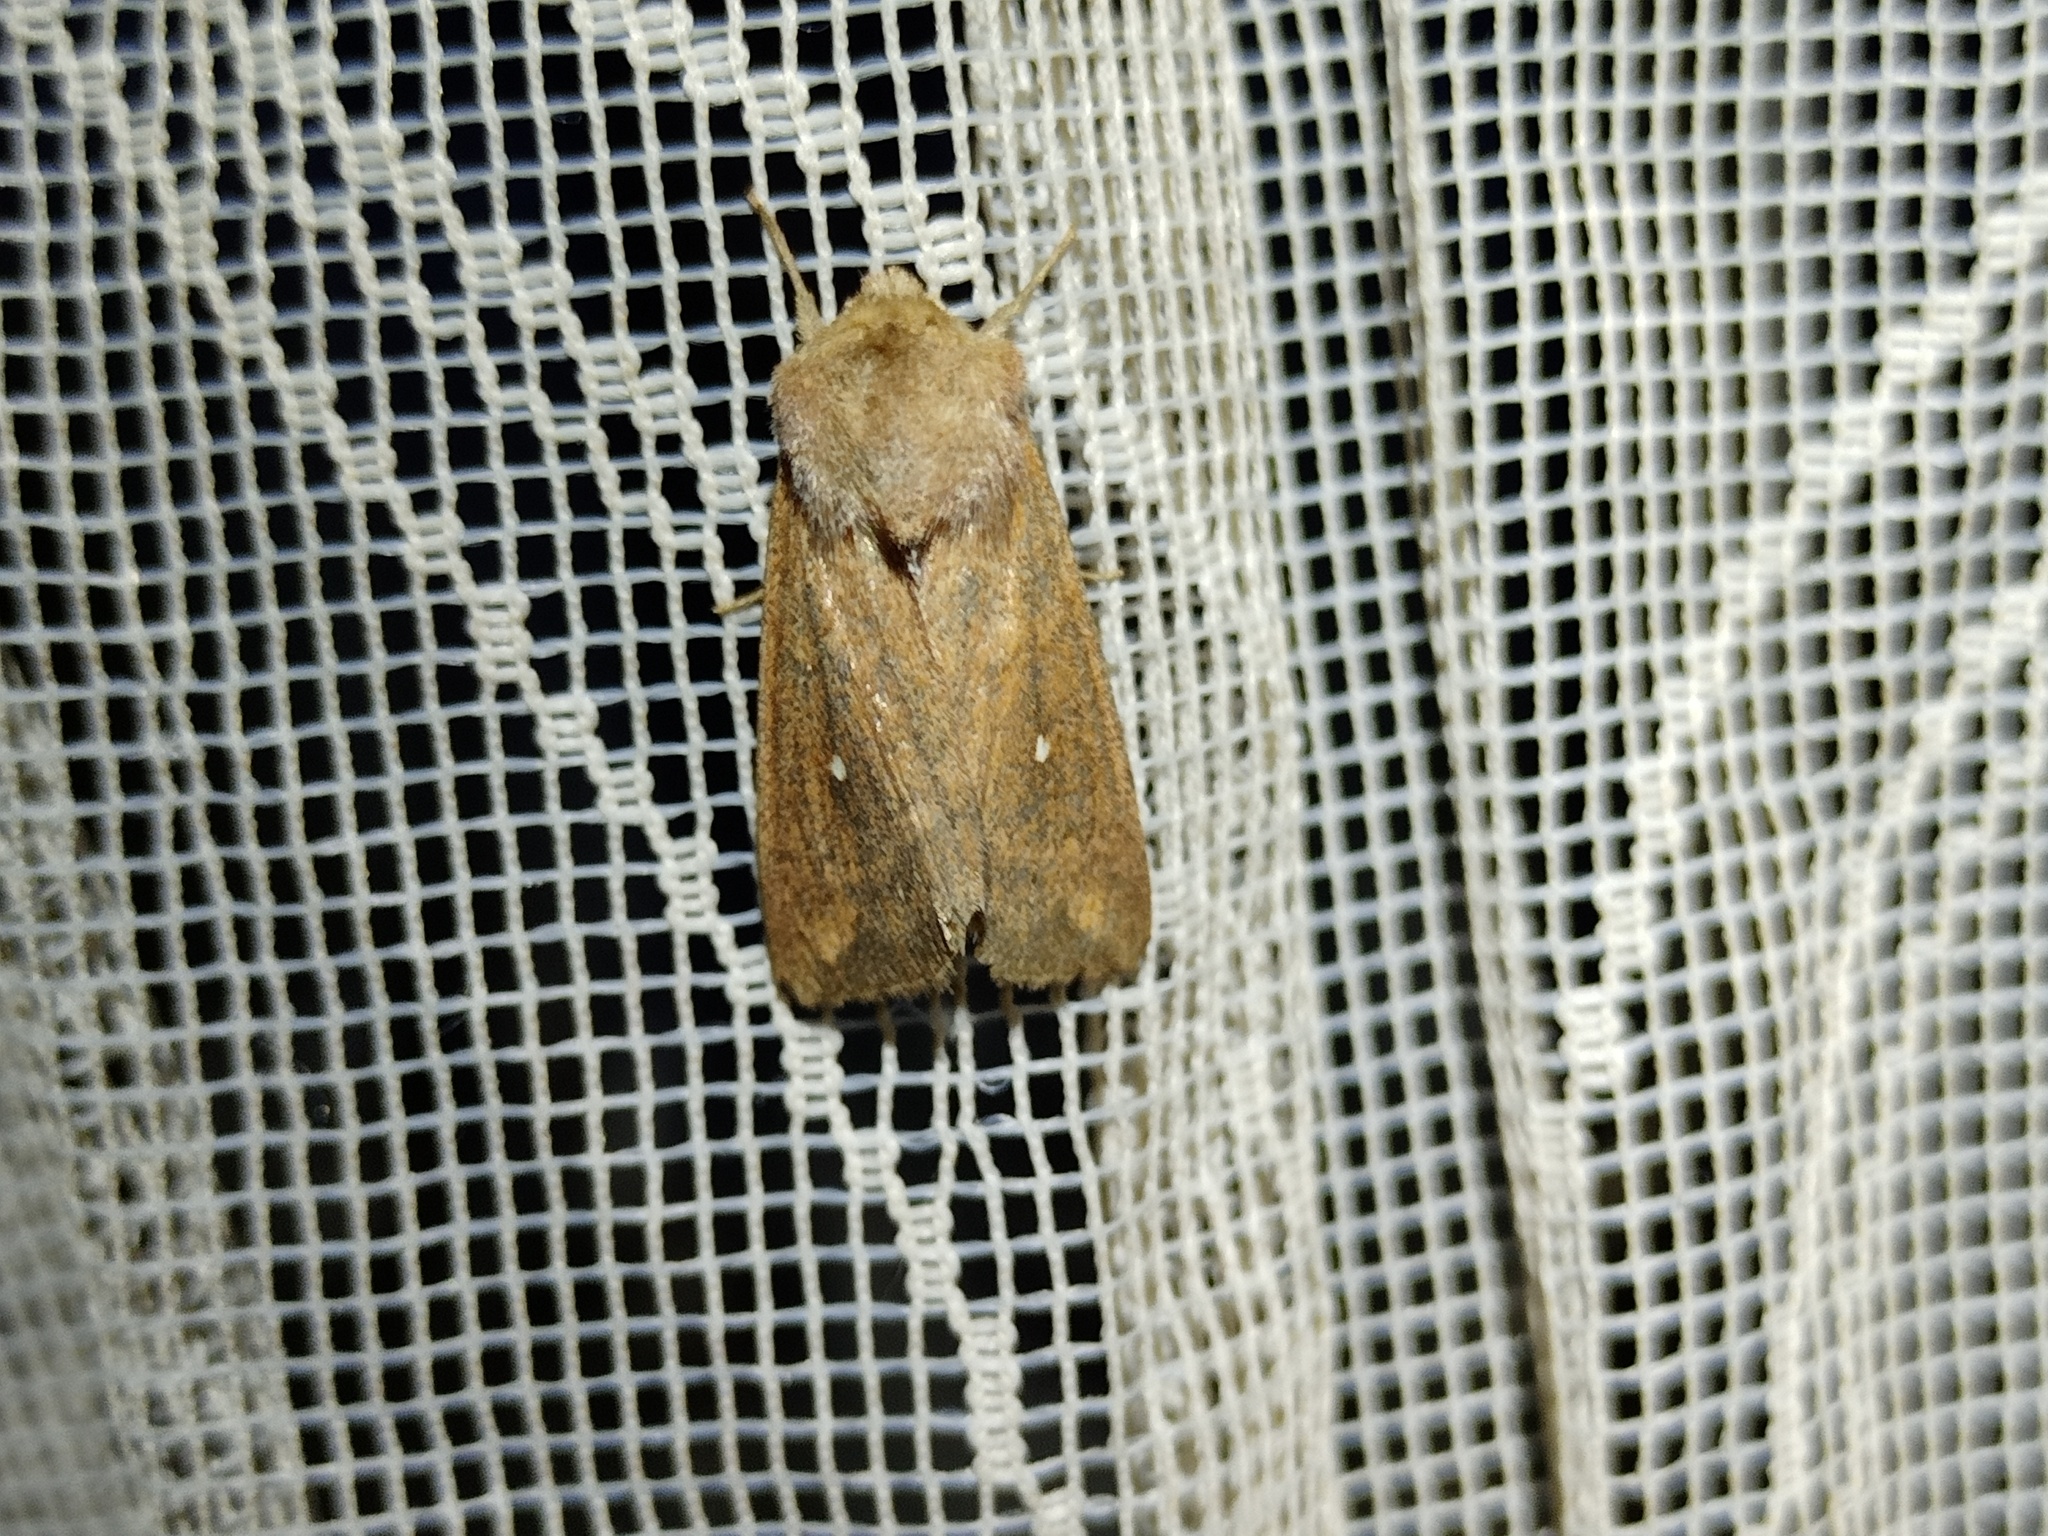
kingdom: Animalia
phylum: Arthropoda
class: Insecta
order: Lepidoptera
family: Noctuidae
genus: Mythimna
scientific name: Mythimna albipuncta
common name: White-point
